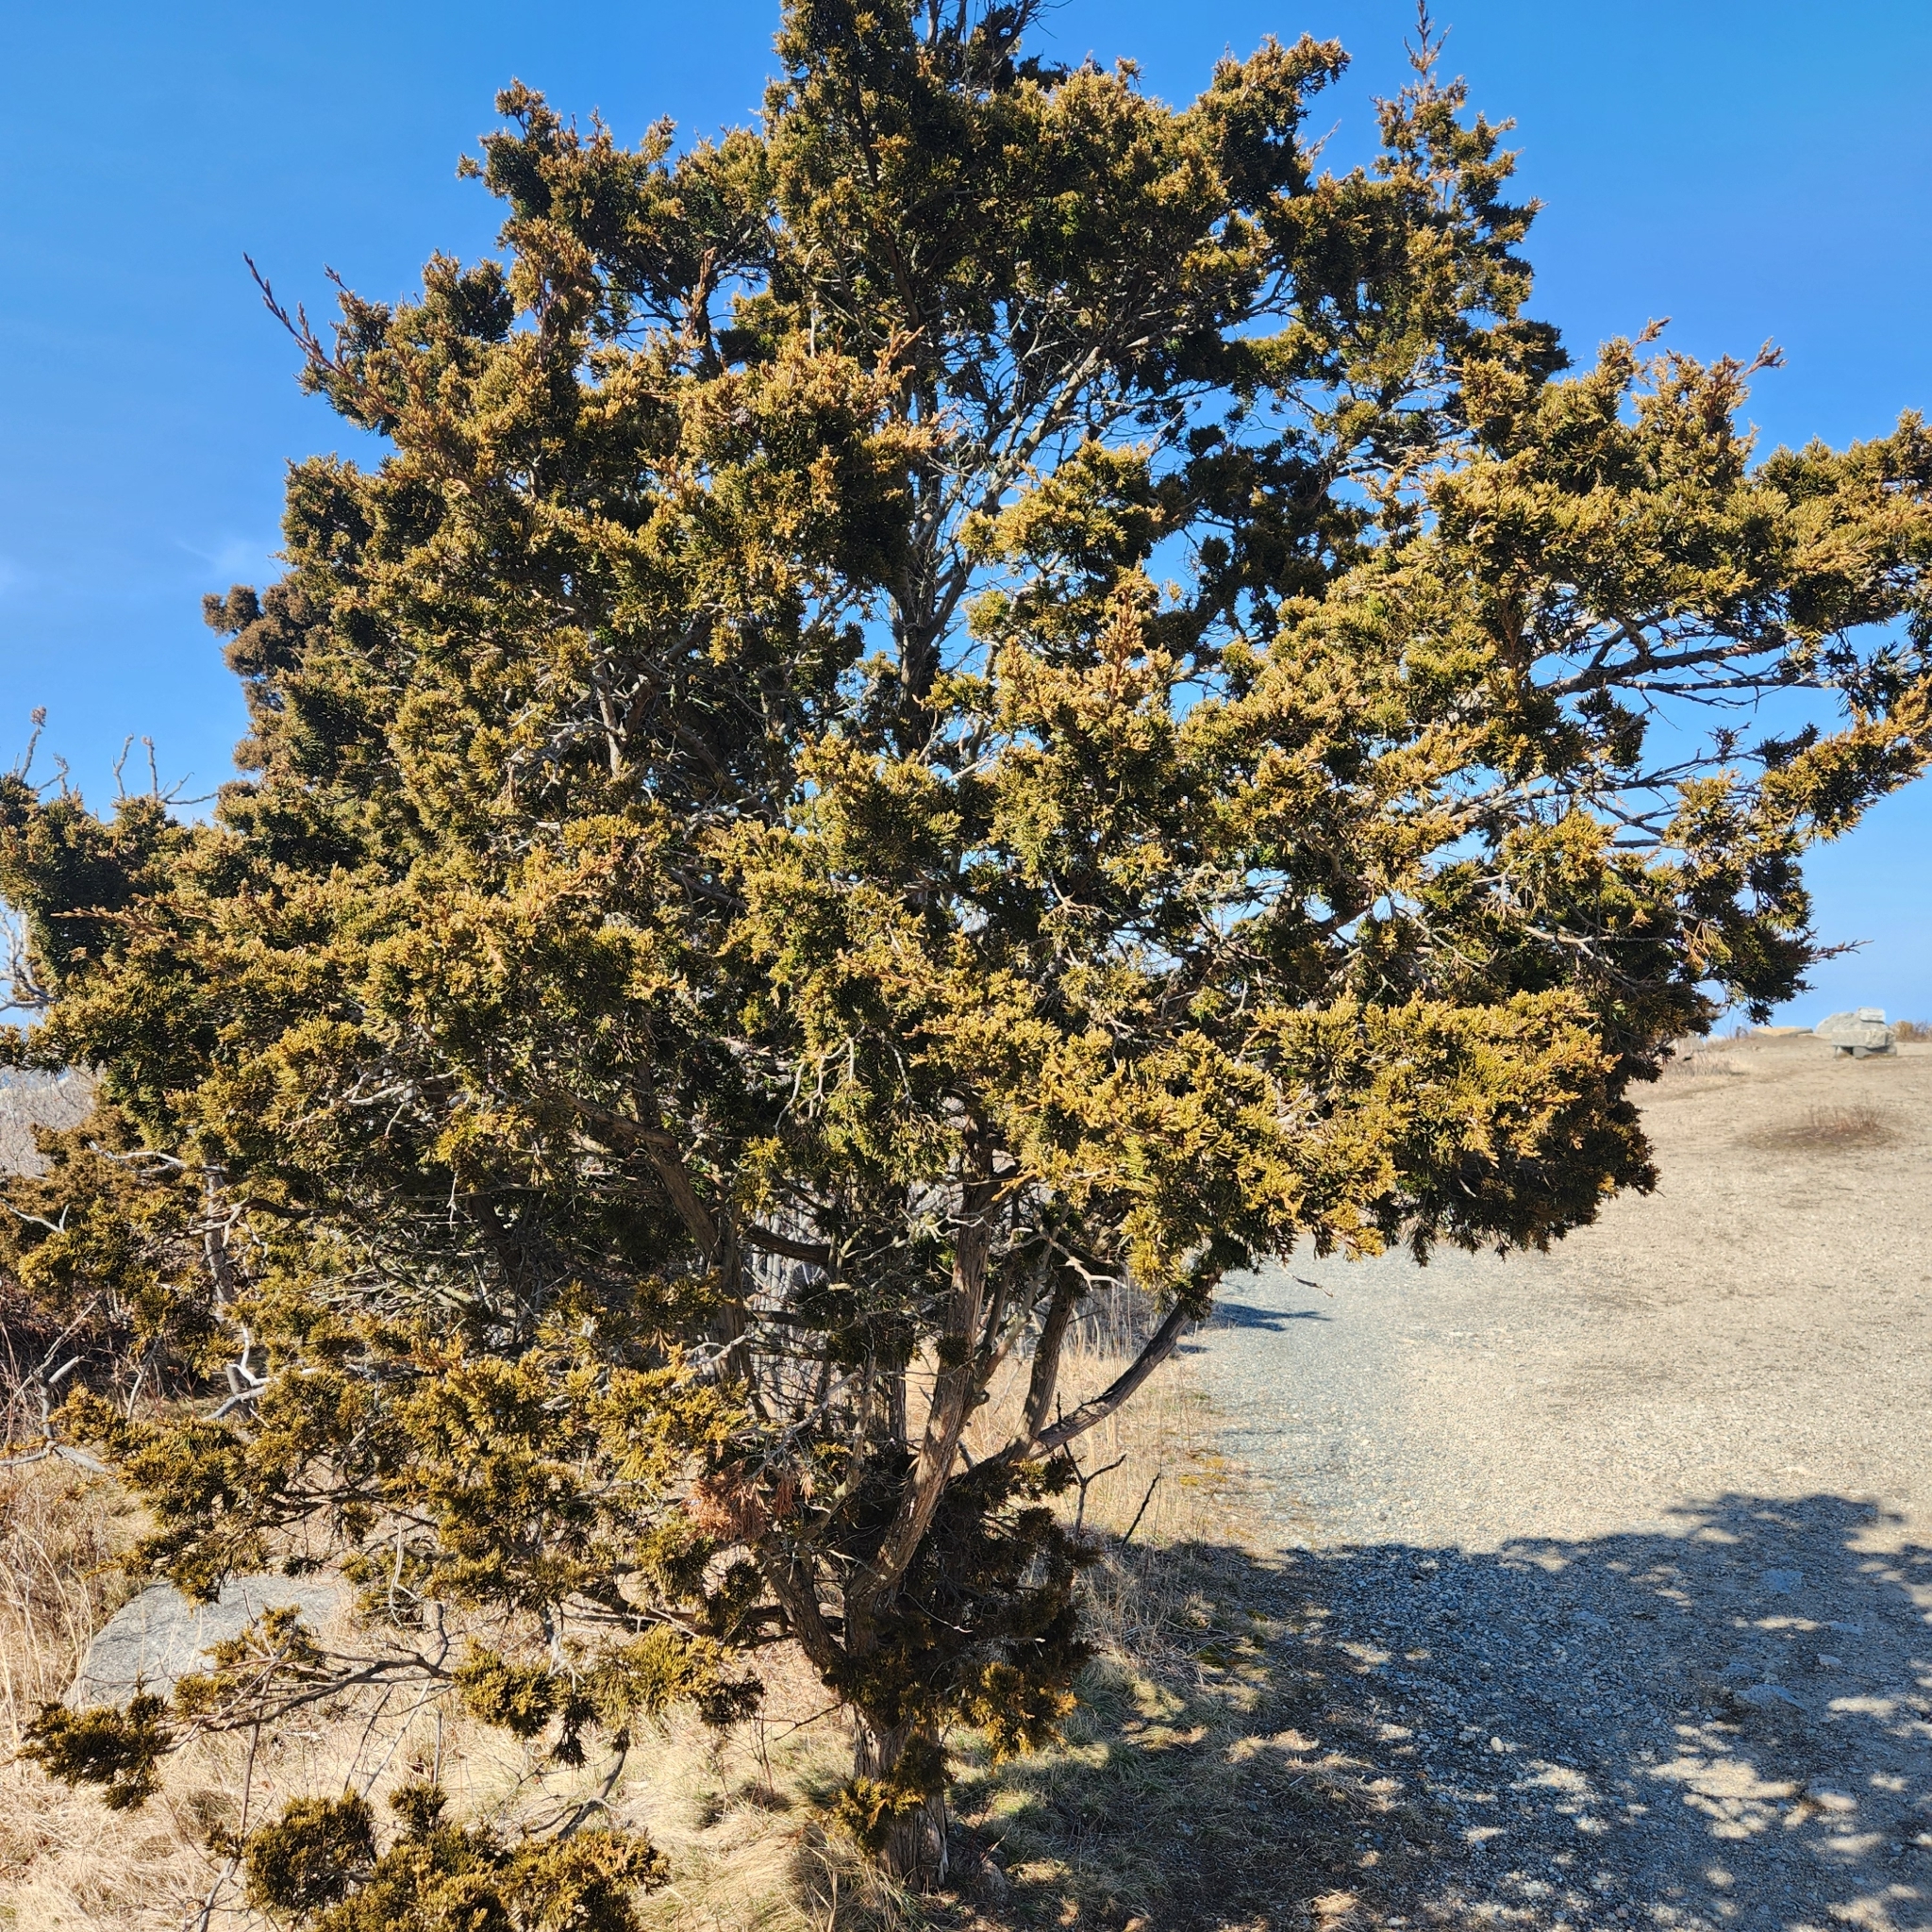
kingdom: Plantae
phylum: Tracheophyta
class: Pinopsida
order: Pinales
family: Cupressaceae
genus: Juniperus
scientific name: Juniperus virginiana
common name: Red juniper
